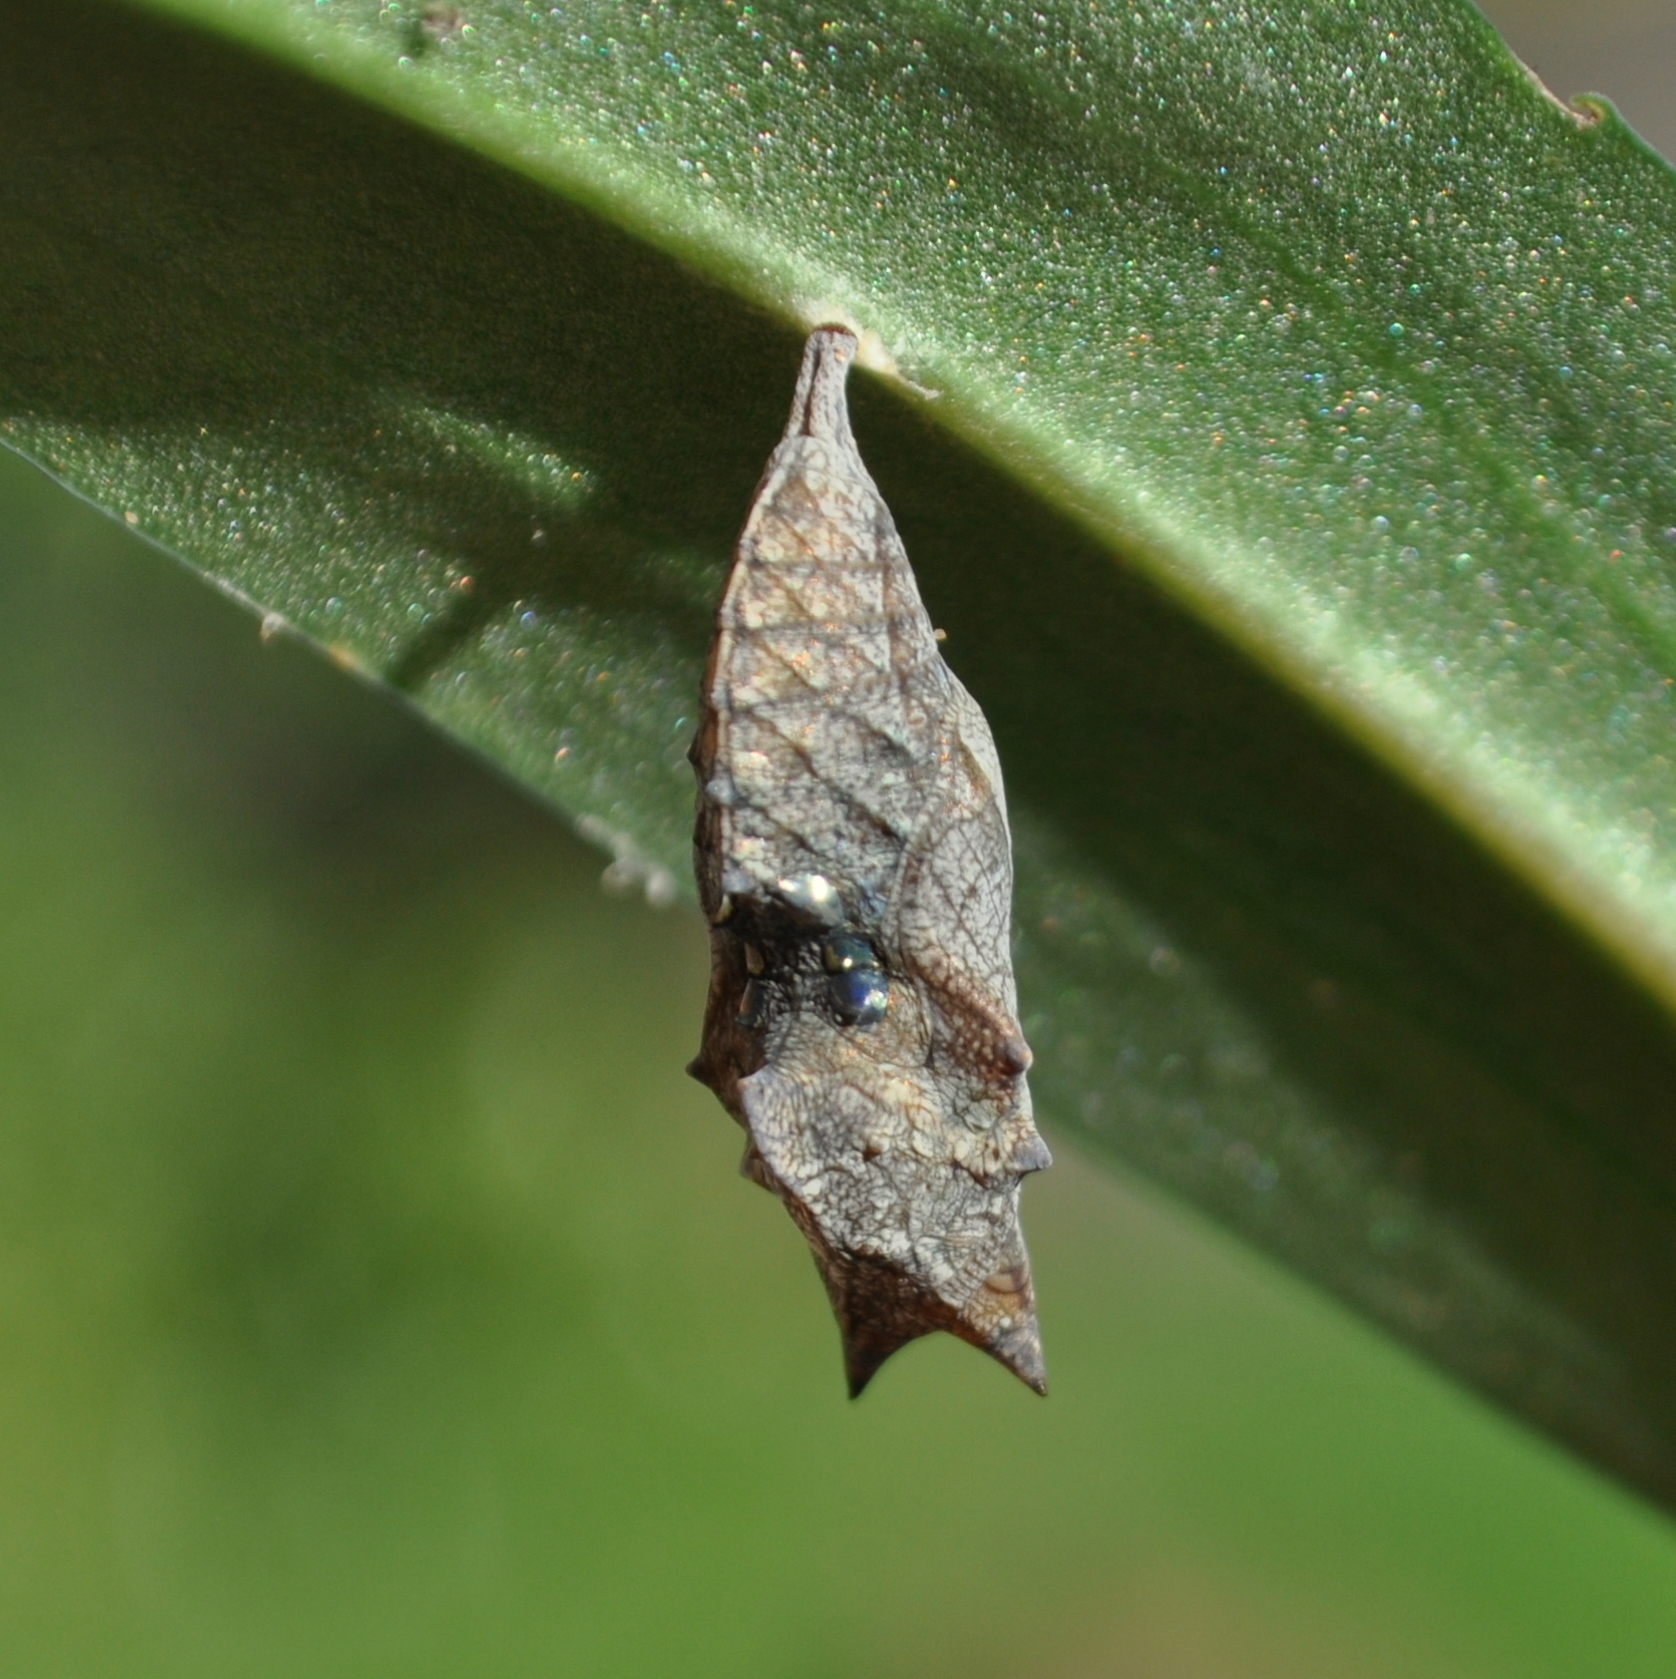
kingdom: Animalia
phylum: Arthropoda
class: Insecta
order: Lepidoptera
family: Nymphalidae
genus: Hypanartia
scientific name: Hypanartia bella
